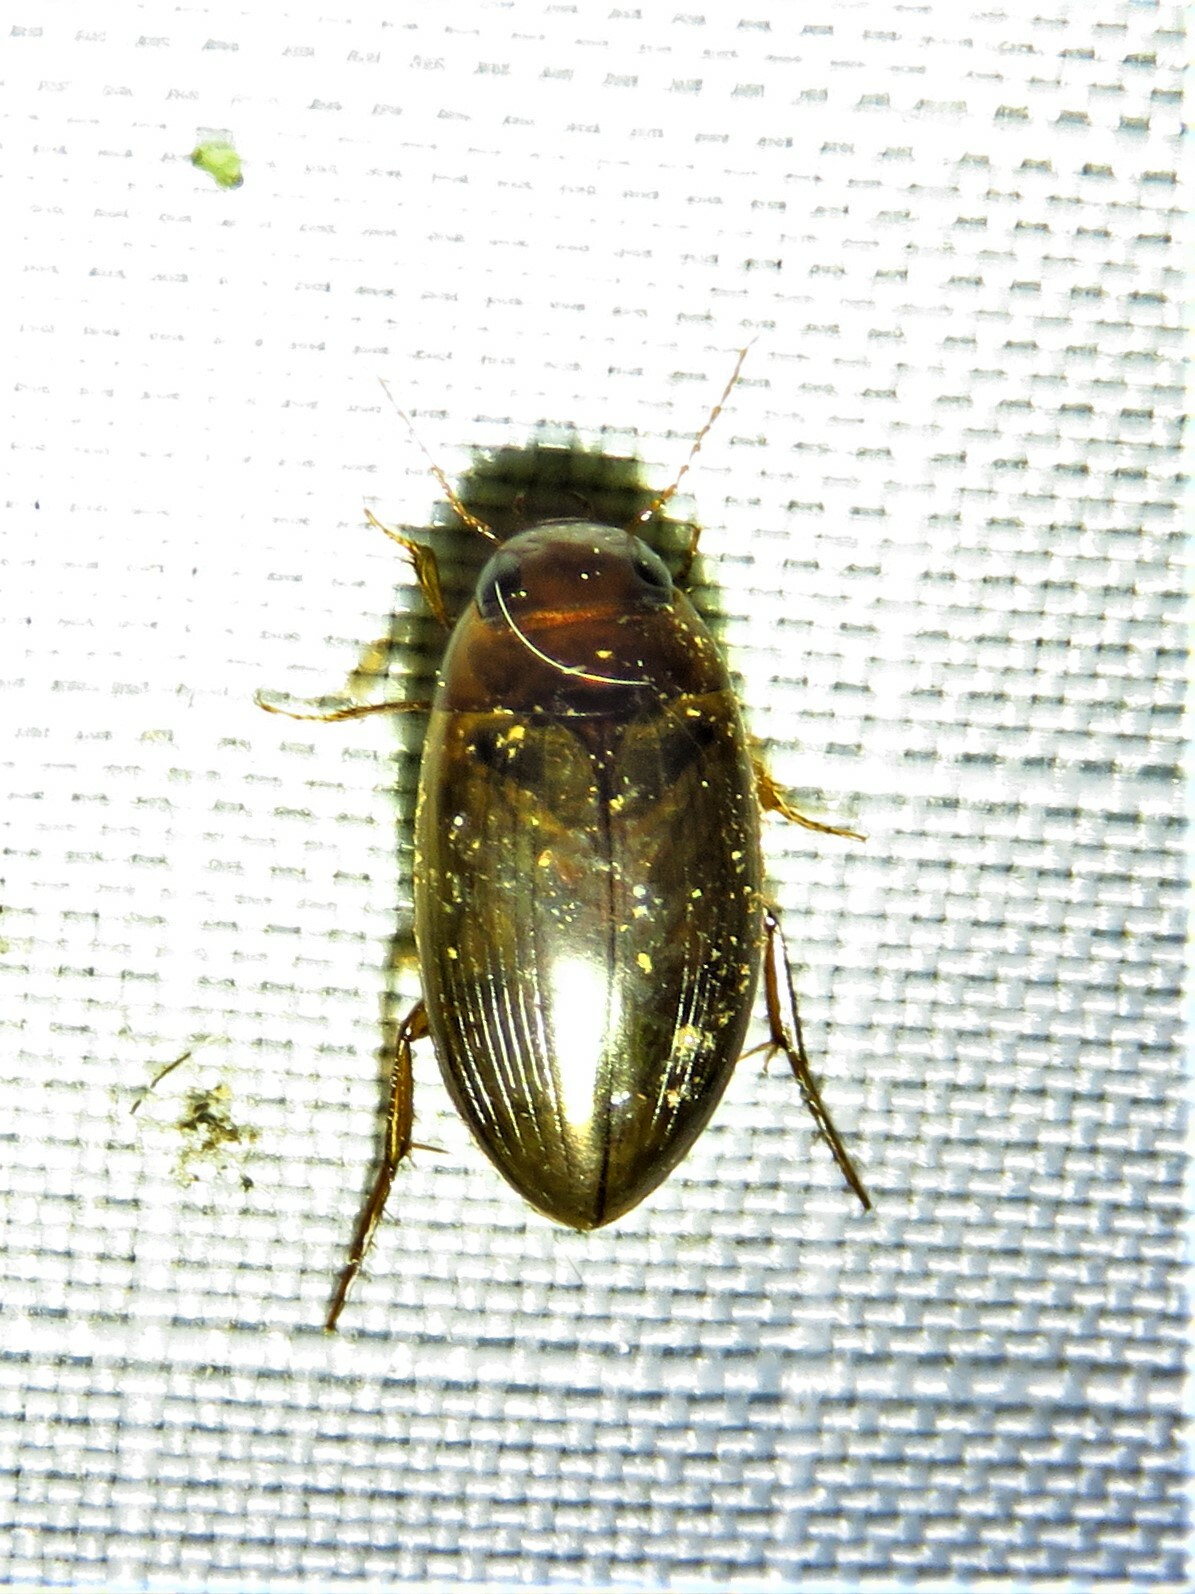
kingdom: Animalia
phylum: Arthropoda
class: Insecta
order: Coleoptera
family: Dytiscidae
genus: Copelatus
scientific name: Copelatus chevrolati
